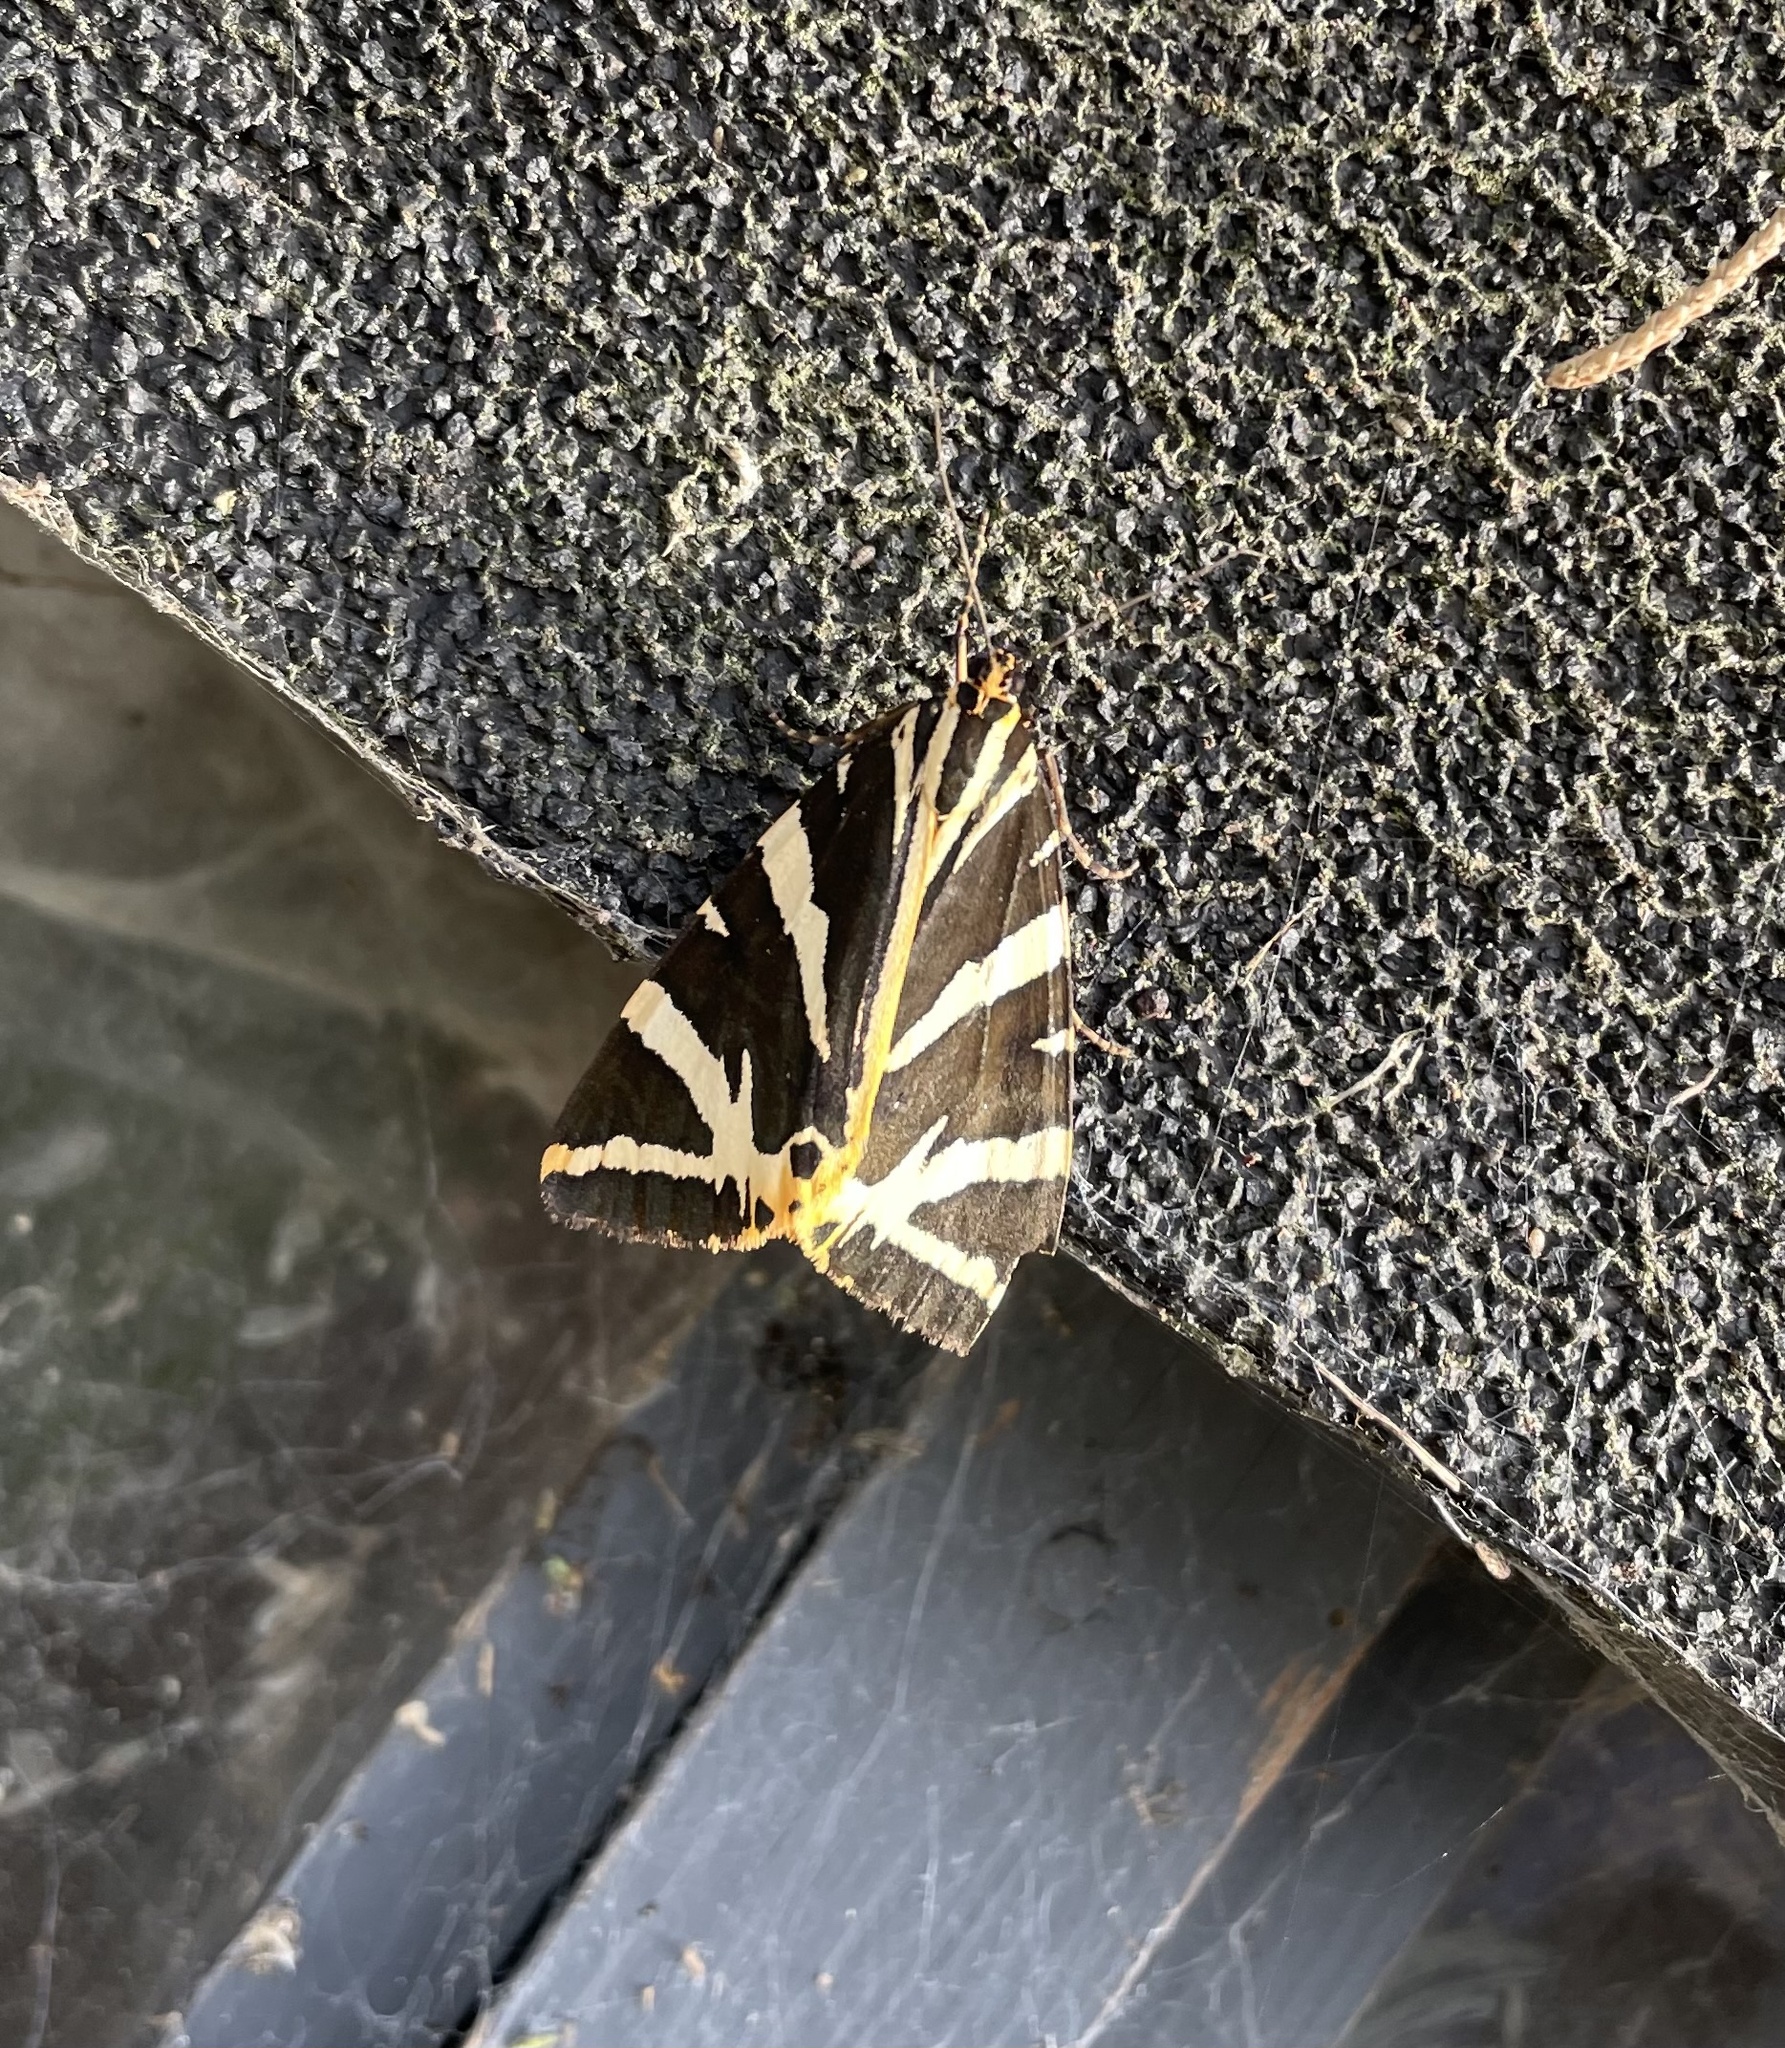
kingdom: Animalia
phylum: Arthropoda
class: Insecta
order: Lepidoptera
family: Erebidae
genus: Euplagia
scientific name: Euplagia quadripunctaria
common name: Jersey tiger
